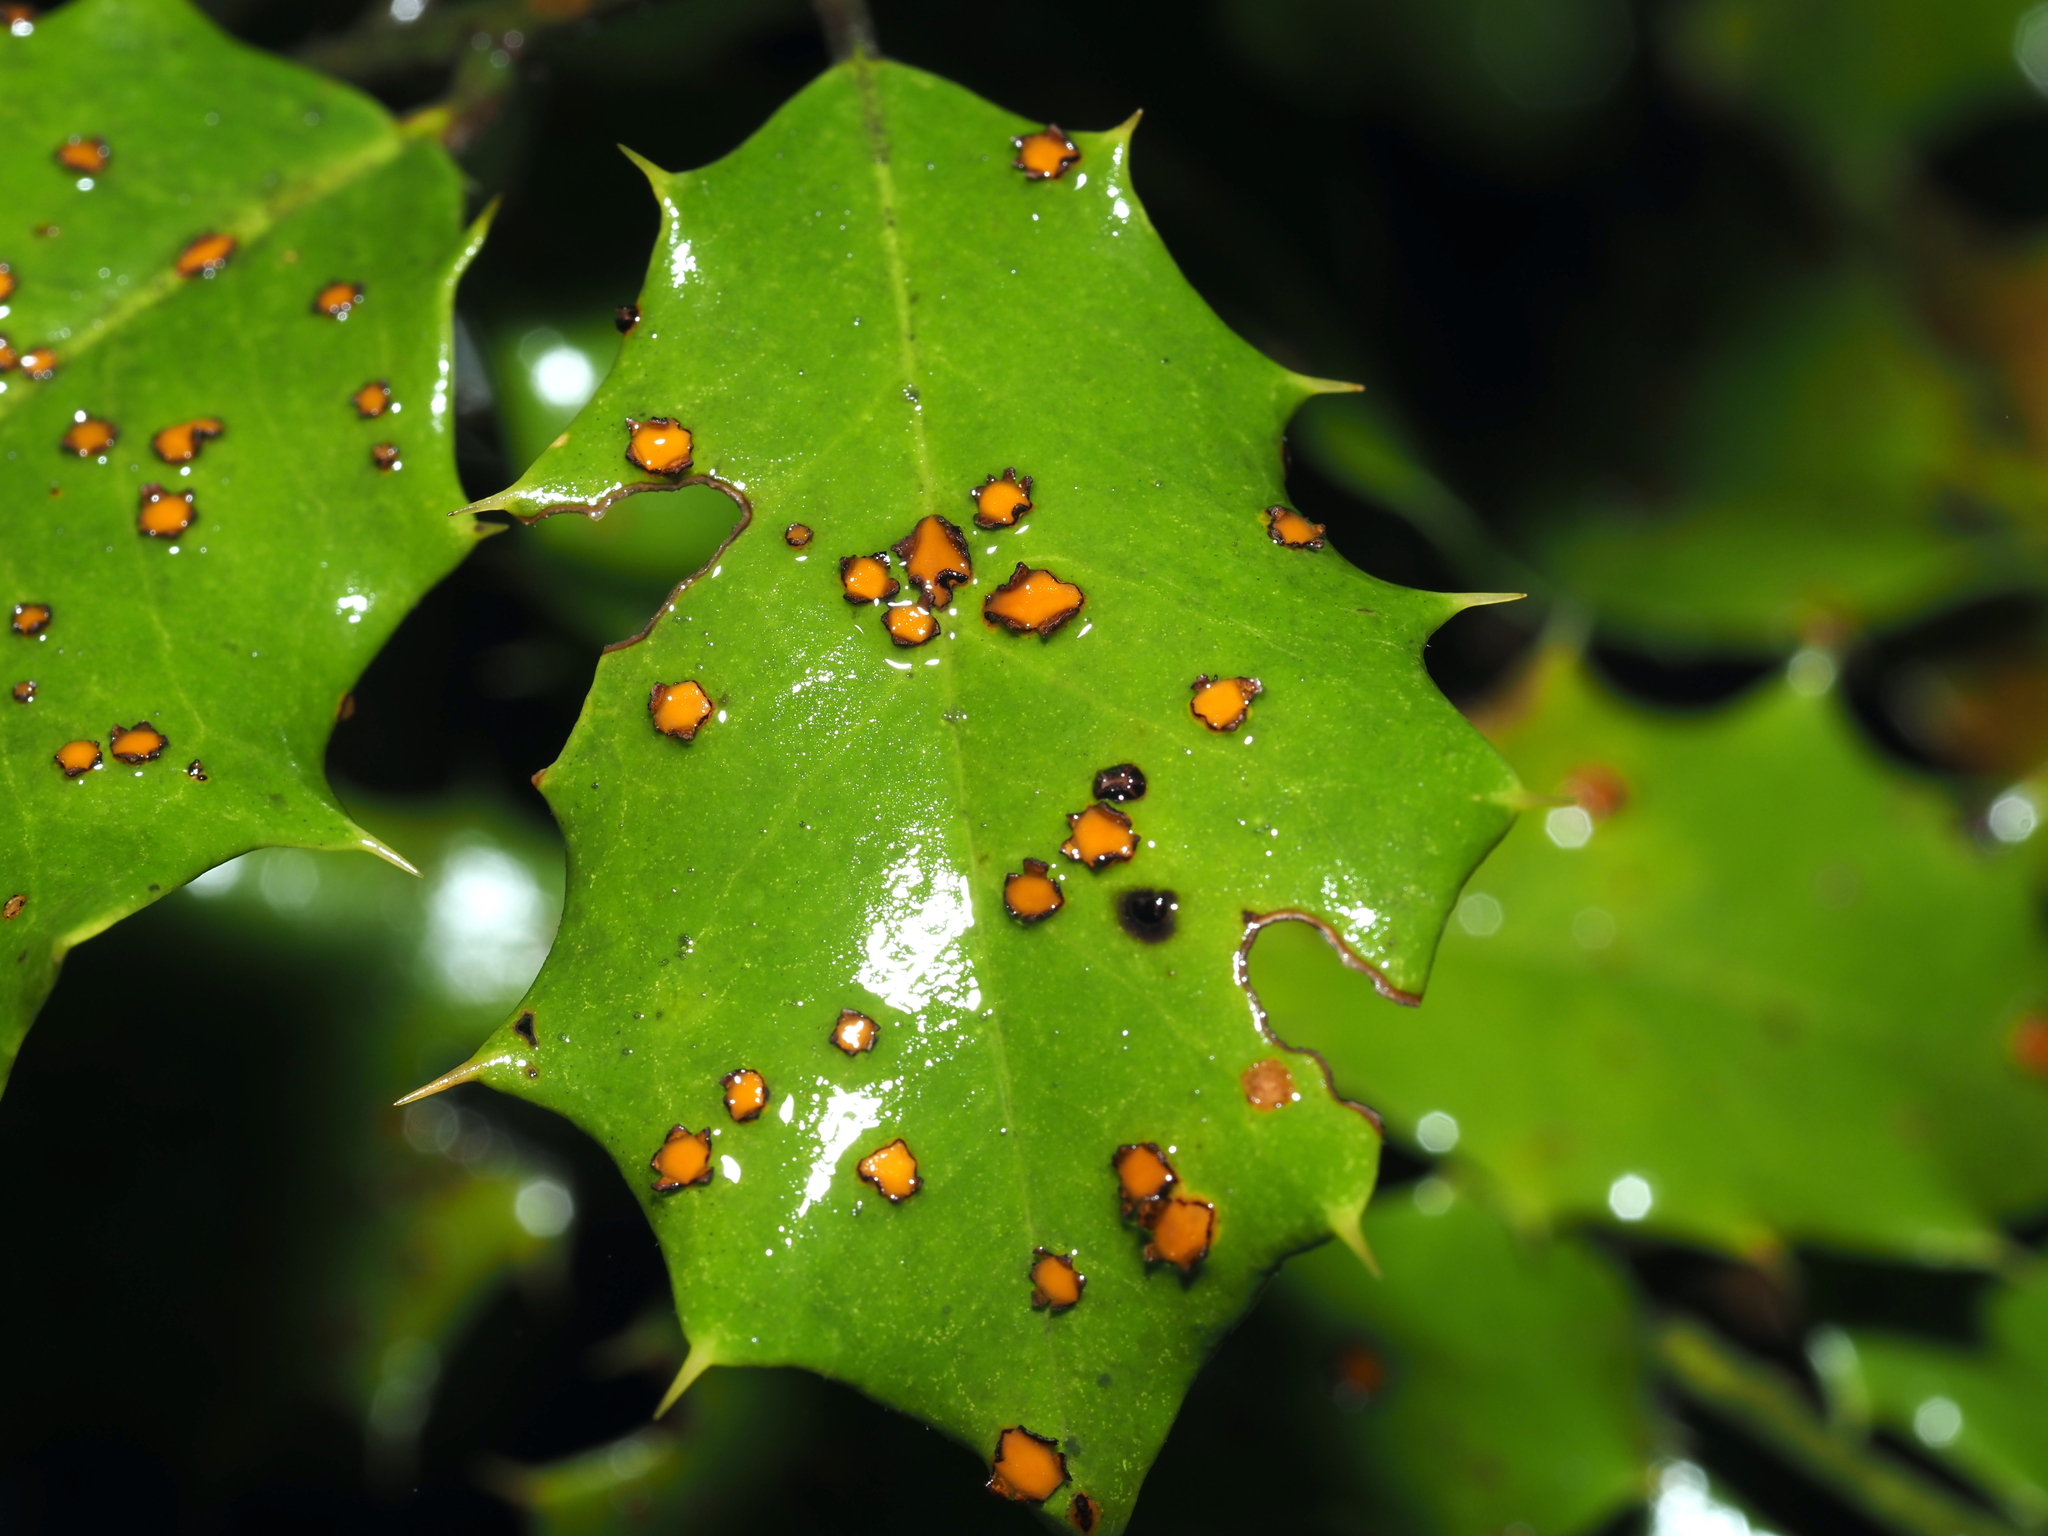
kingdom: Fungi
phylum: Ascomycota
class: Leotiomycetes
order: Rhytismatales
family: Rhytismataceae
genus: Macroderma
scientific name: Macroderma curtisii
